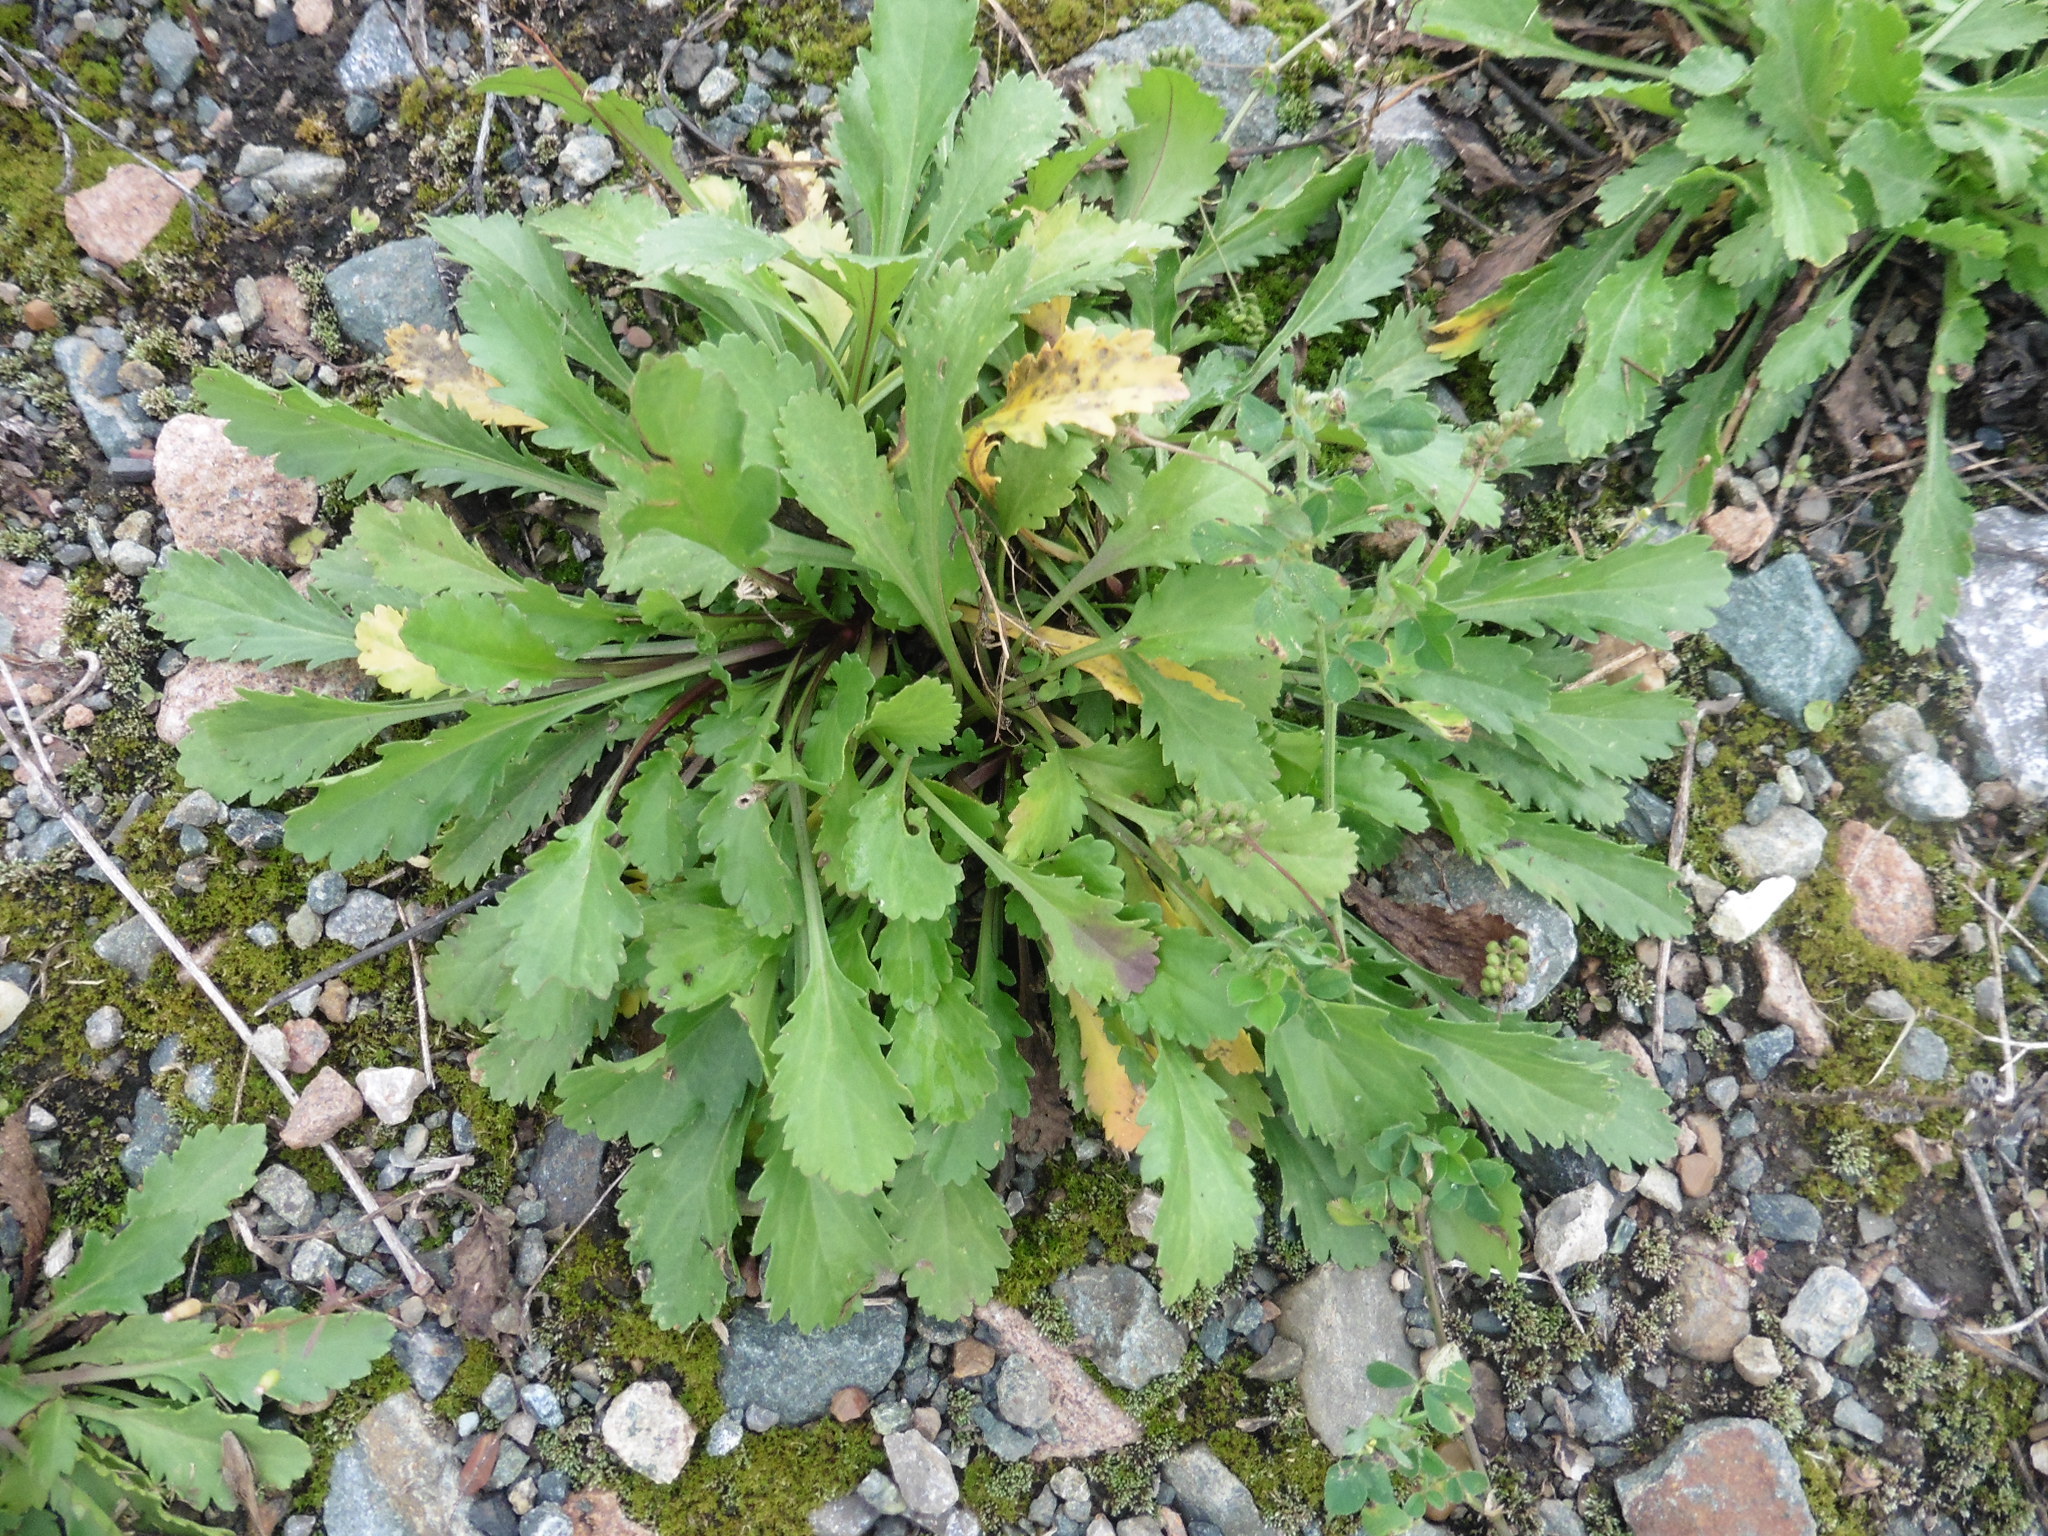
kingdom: Plantae
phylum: Tracheophyta
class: Magnoliopsida
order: Asterales
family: Asteraceae
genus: Leucanthemum
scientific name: Leucanthemum vulgare
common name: Oxeye daisy
